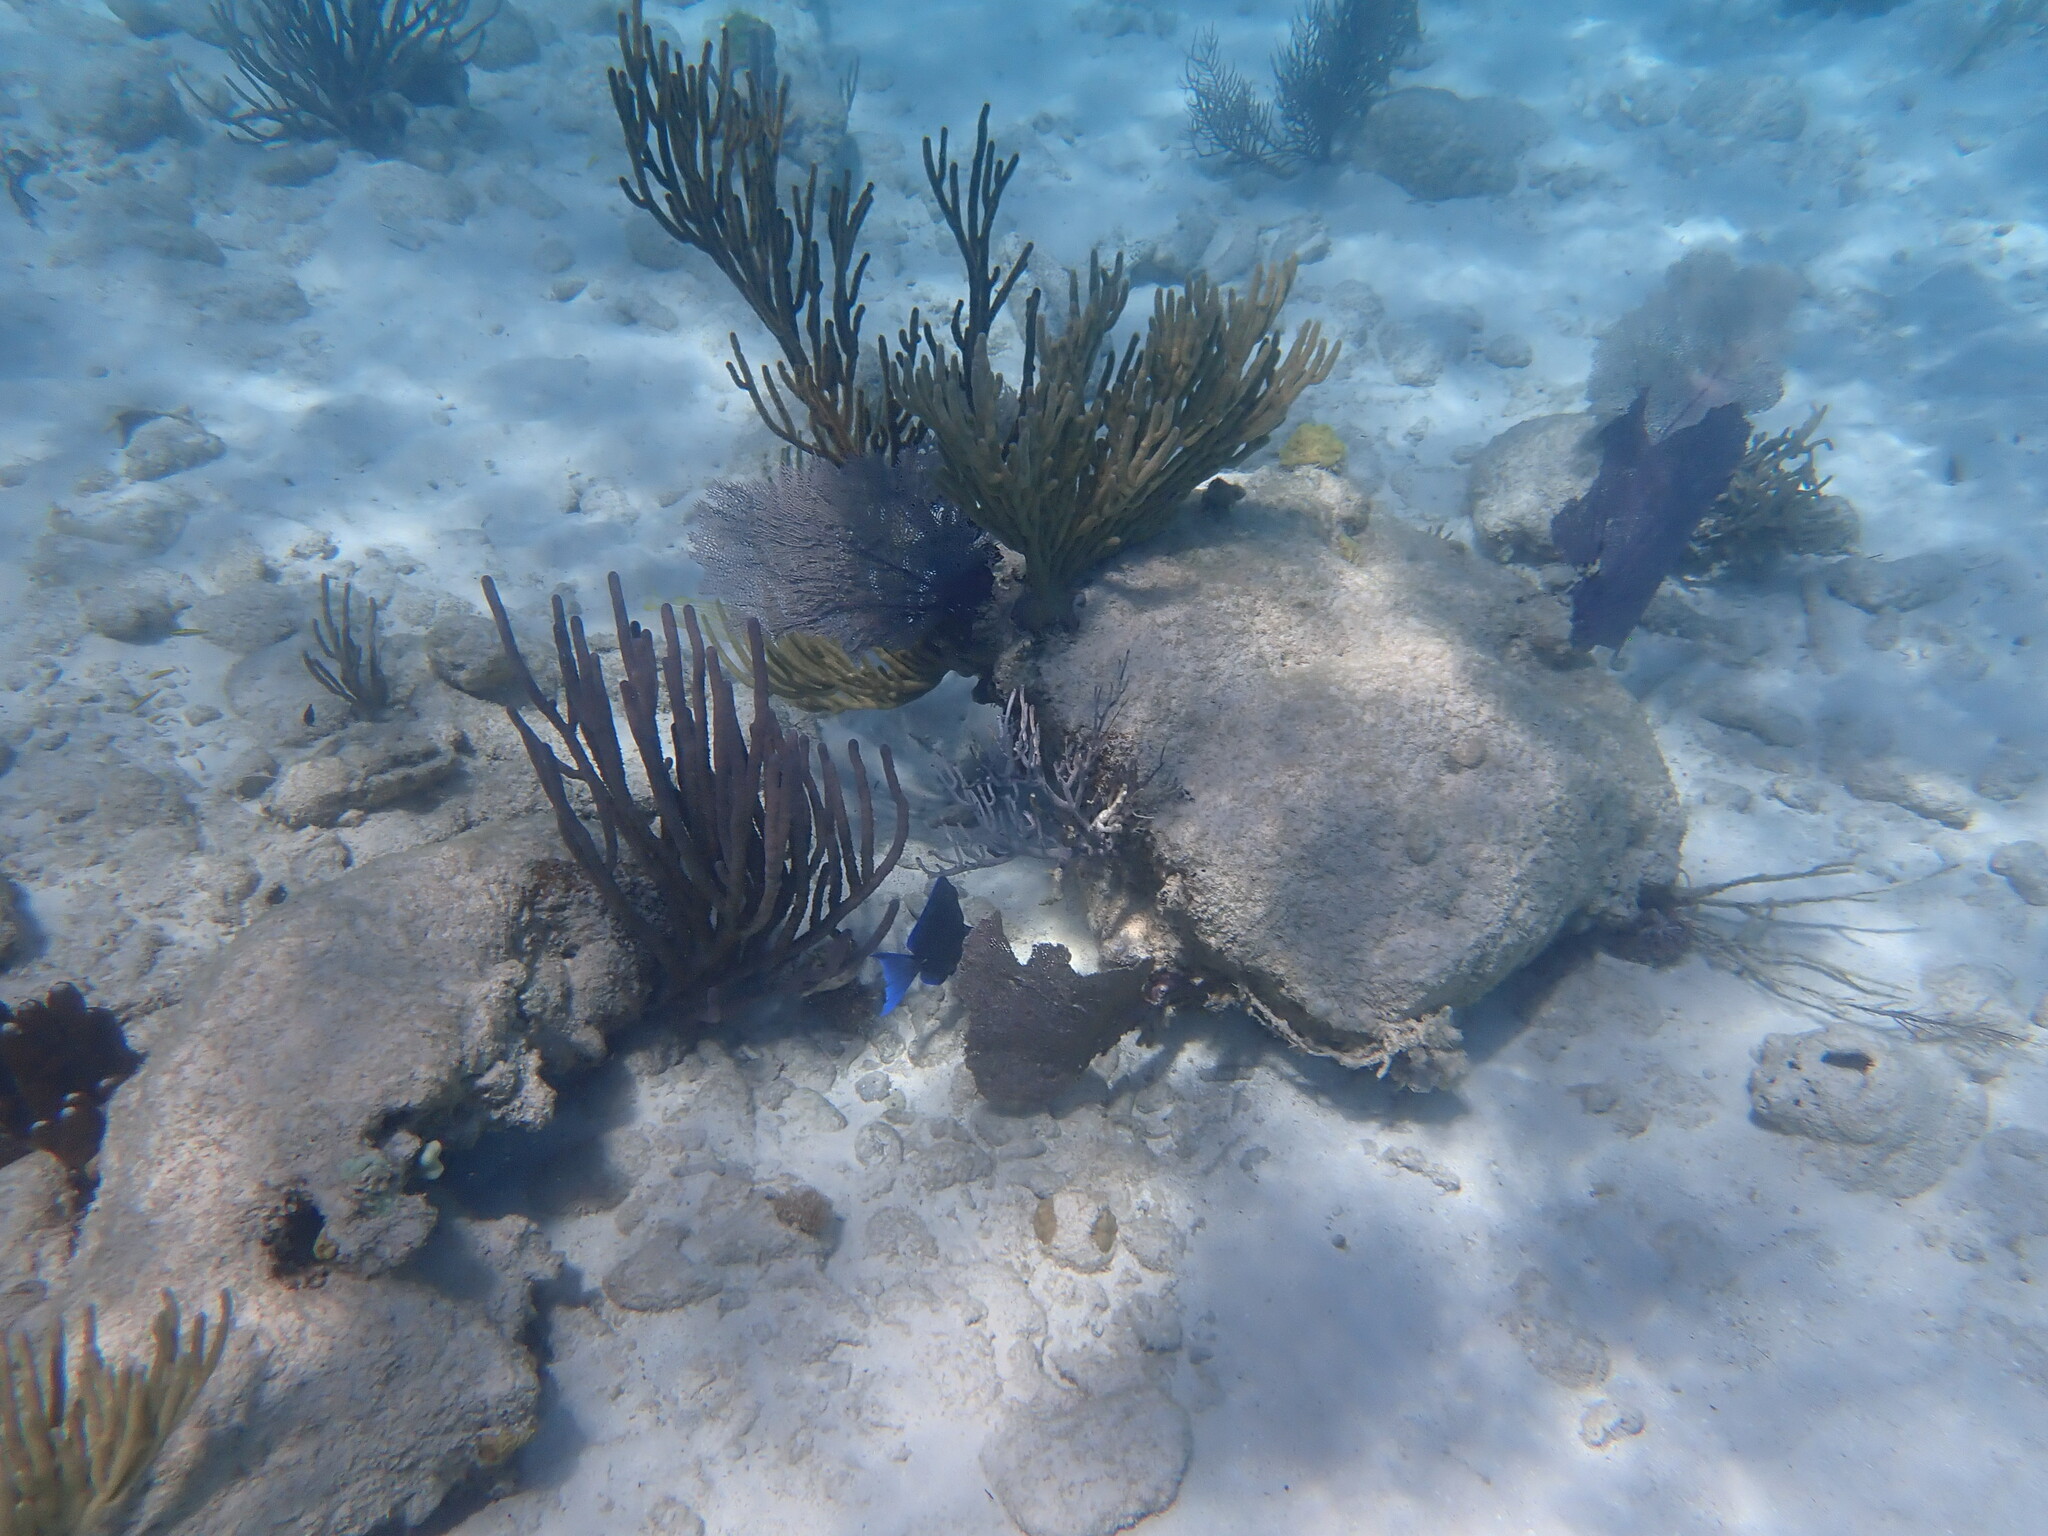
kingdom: Animalia
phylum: Chordata
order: Perciformes
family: Acanthuridae
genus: Acanthurus
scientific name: Acanthurus coeruleus
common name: Blue tang
